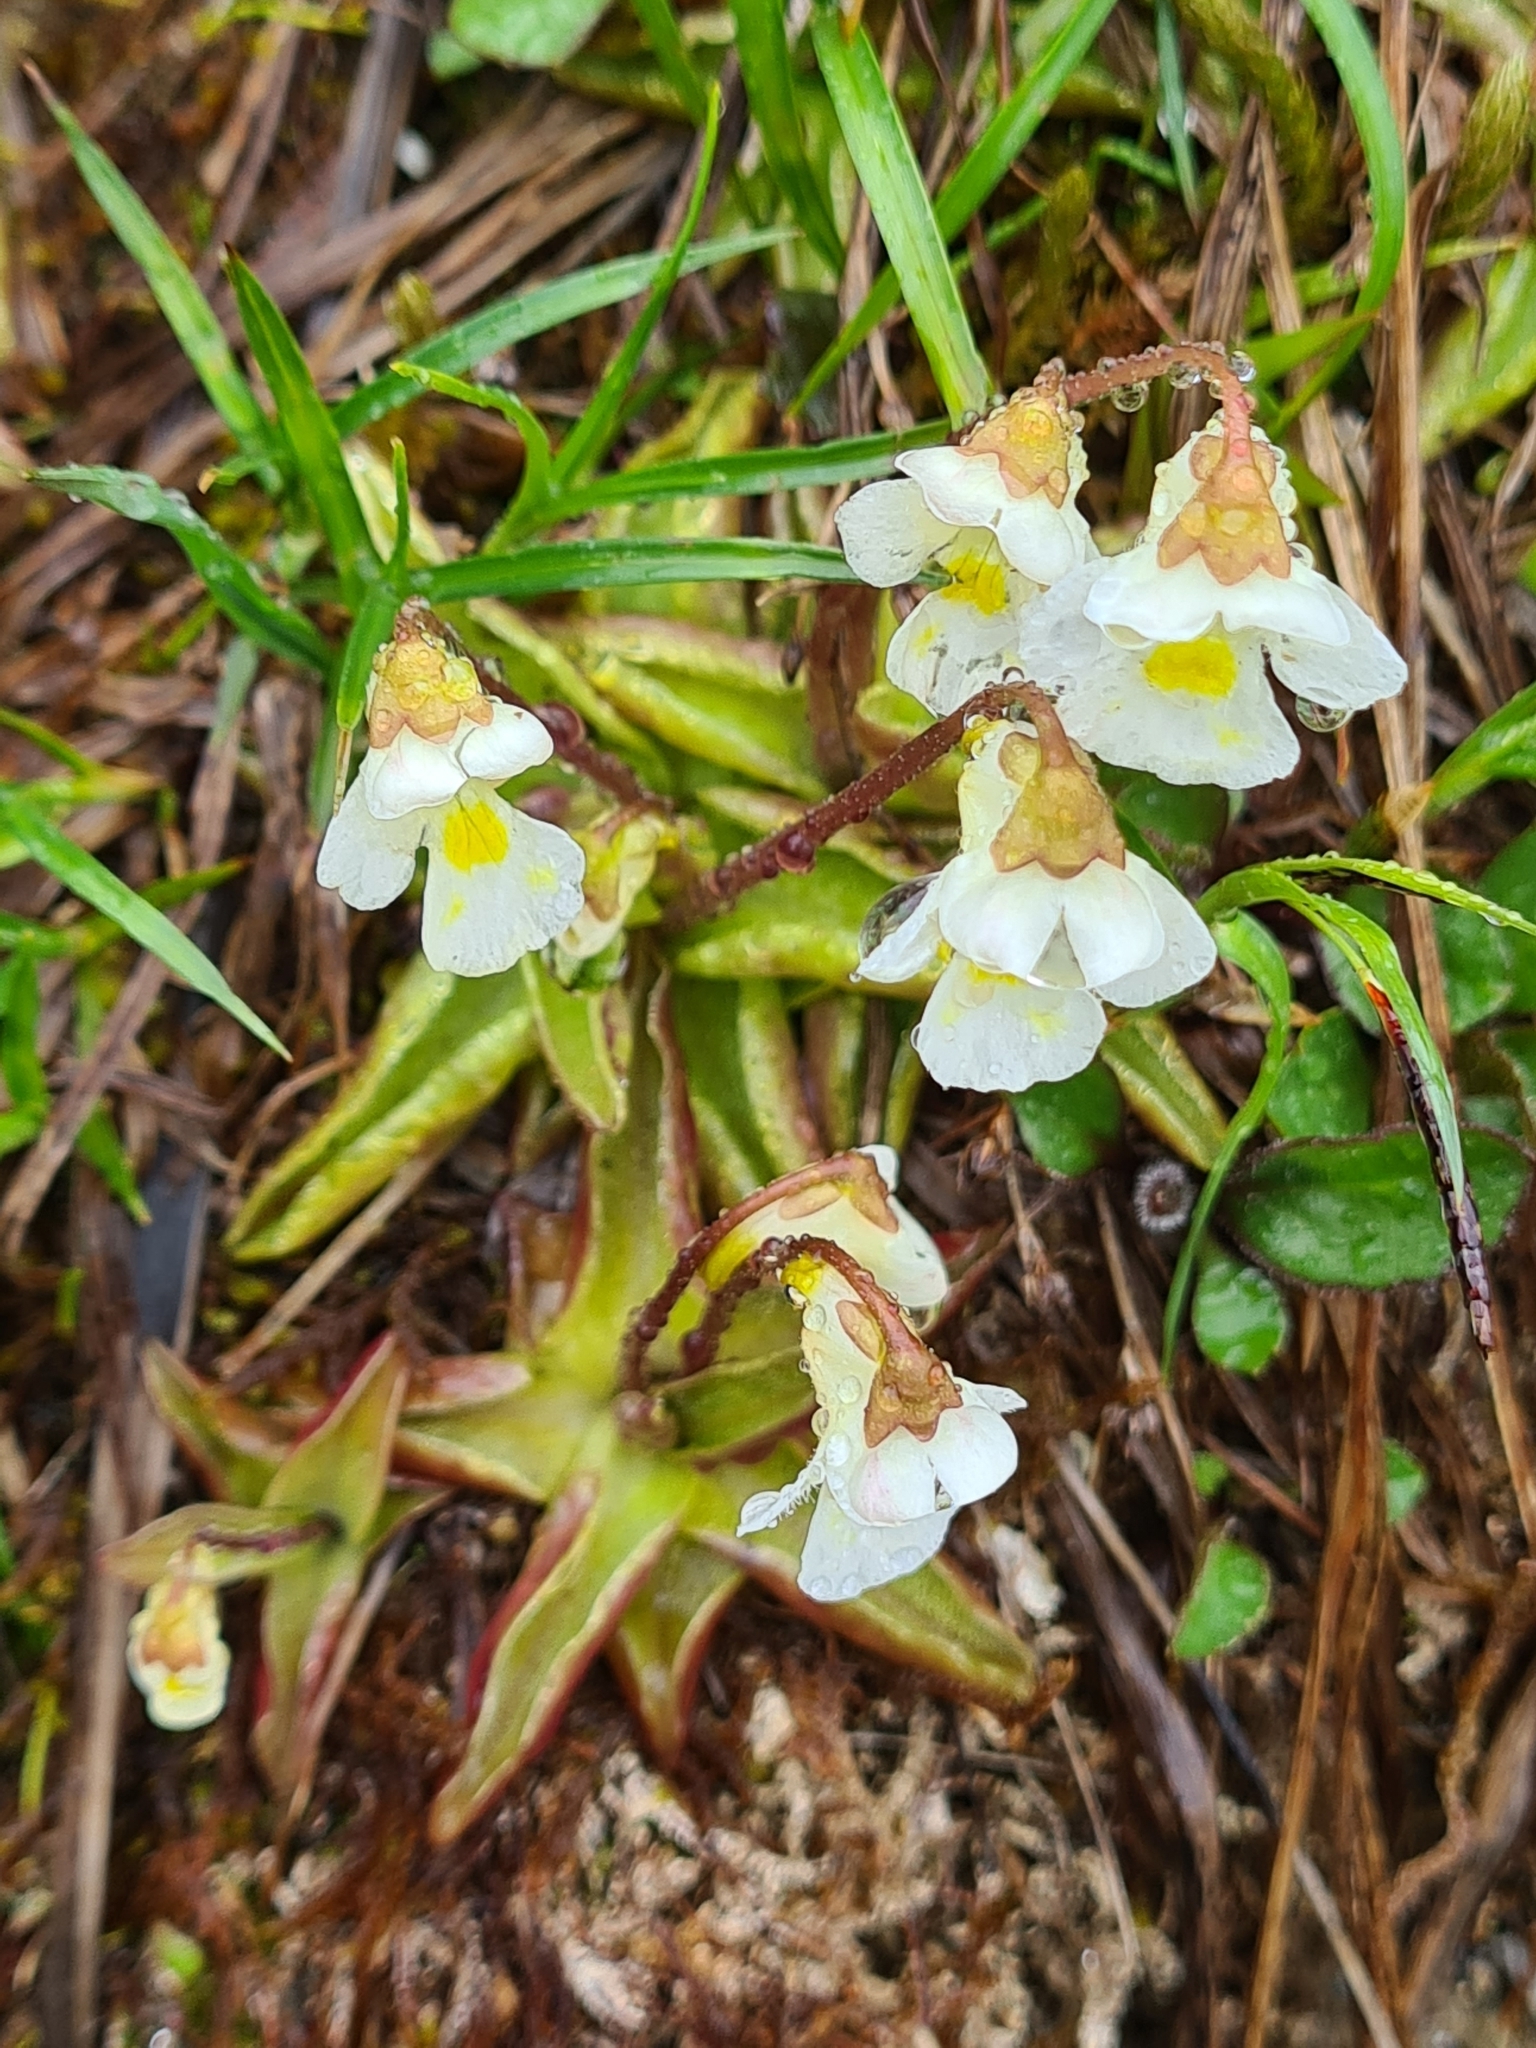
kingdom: Plantae
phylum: Tracheophyta
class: Magnoliopsida
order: Lamiales
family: Lentibulariaceae
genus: Pinguicula
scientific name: Pinguicula alpina
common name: Alpine butterwort
